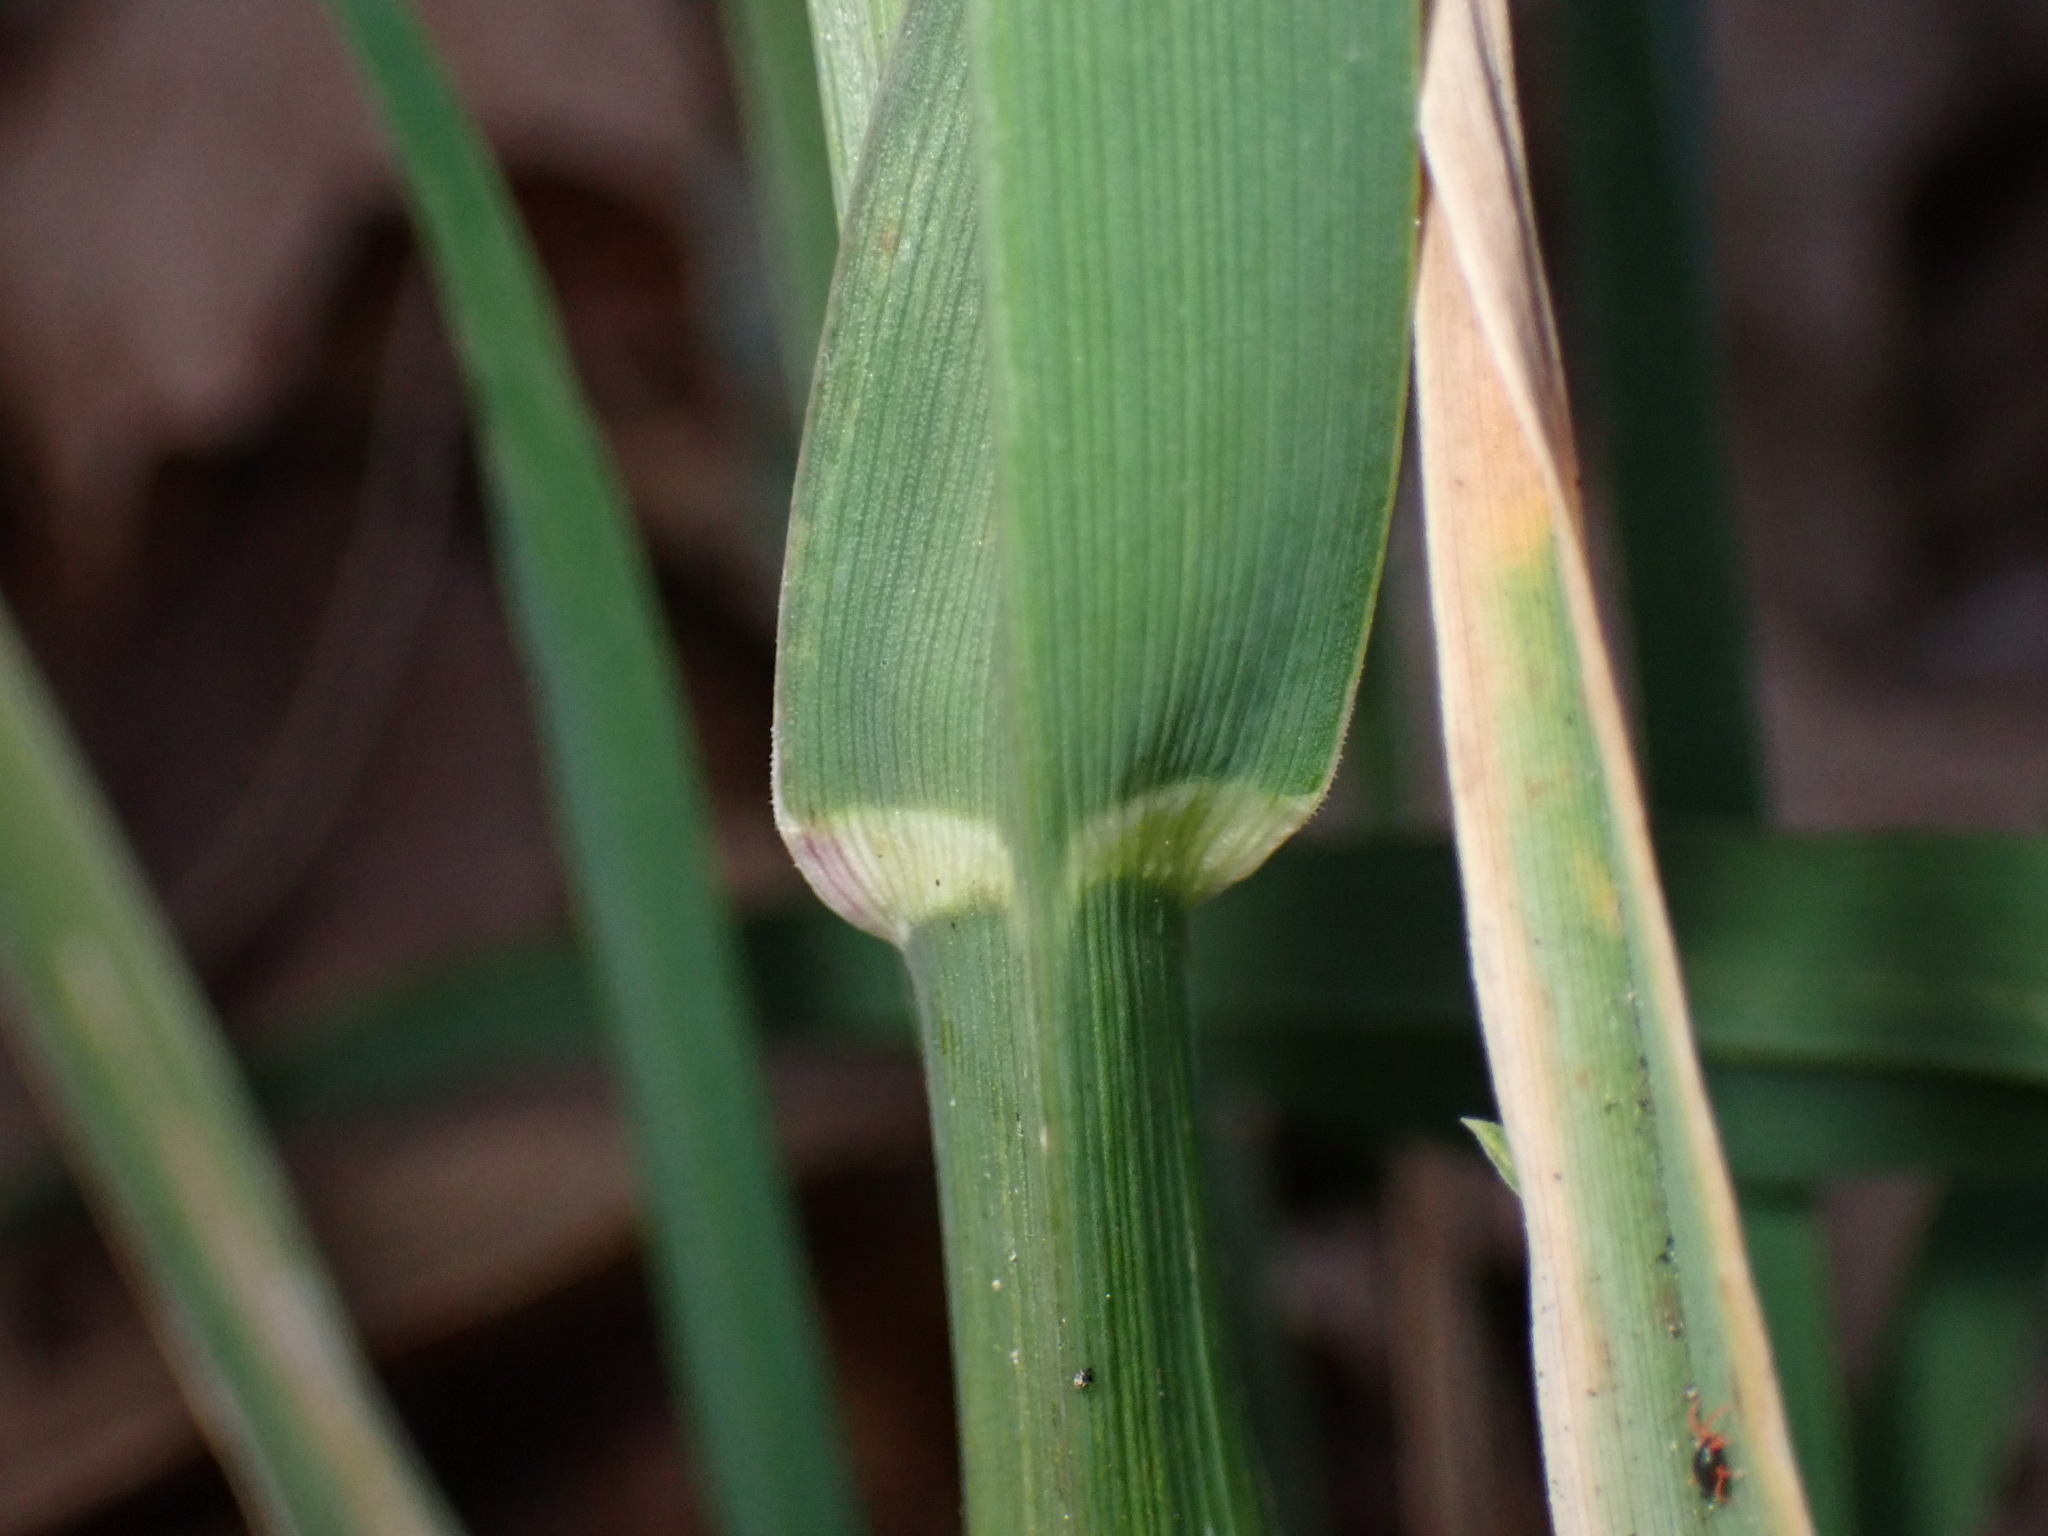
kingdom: Plantae
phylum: Tracheophyta
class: Liliopsida
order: Poales
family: Poaceae
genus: Dactylis
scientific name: Dactylis glomerata
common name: Orchardgrass
